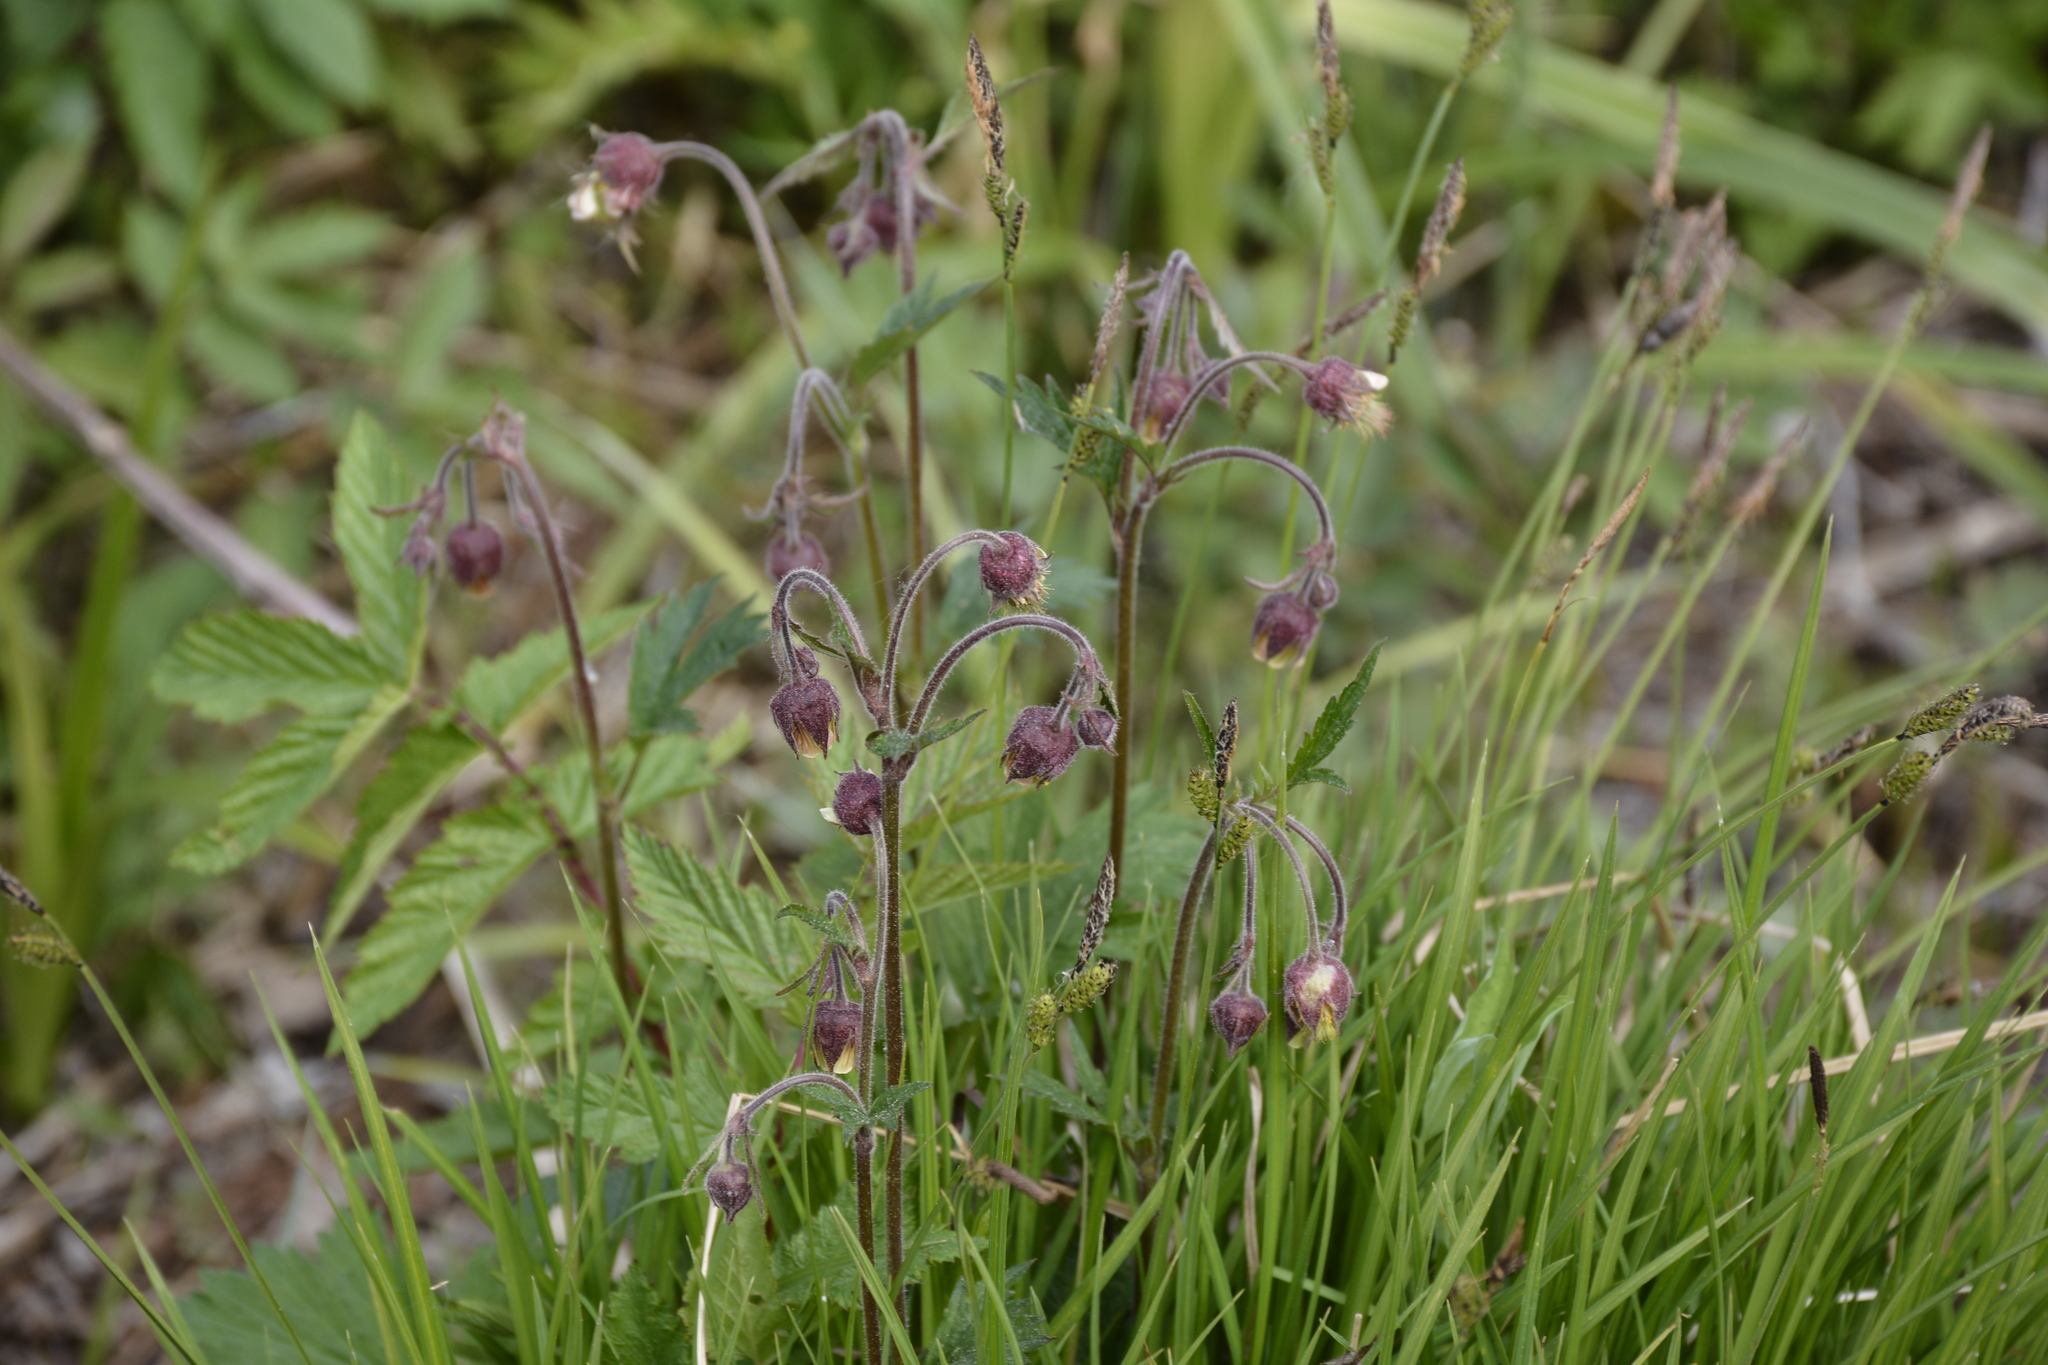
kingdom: Plantae
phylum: Tracheophyta
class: Magnoliopsida
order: Rosales
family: Rosaceae
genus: Geum
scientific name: Geum rivale
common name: Water avens
